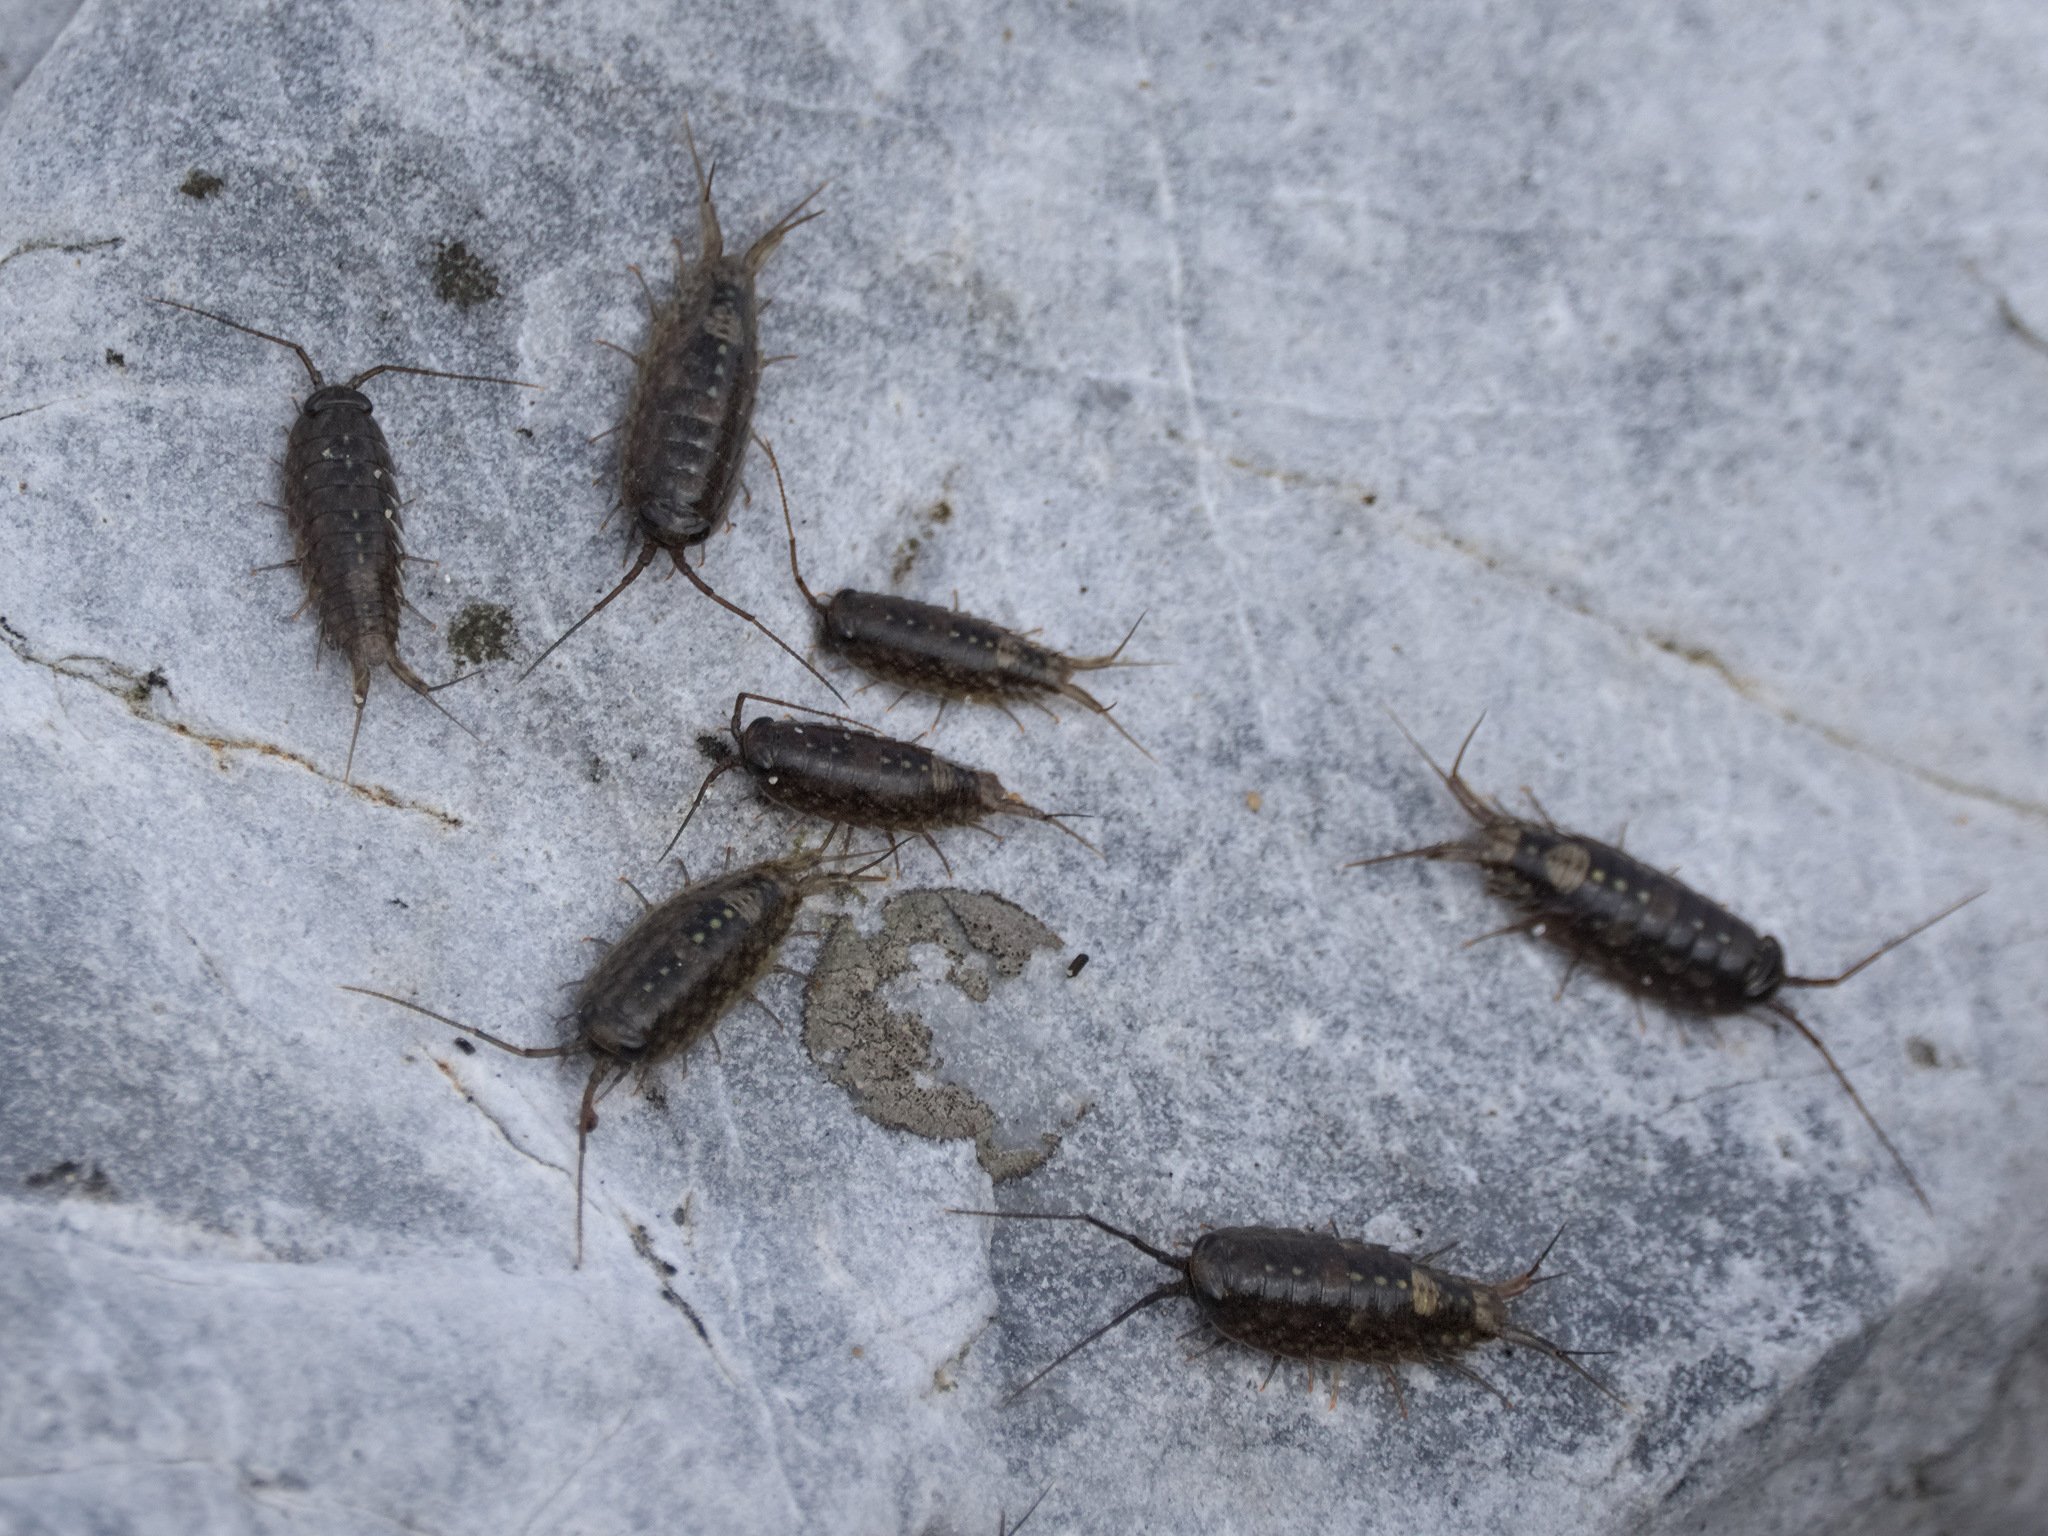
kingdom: Animalia
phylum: Arthropoda
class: Malacostraca
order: Isopoda
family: Ligiidae
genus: Ligia
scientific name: Ligia occidentalis
